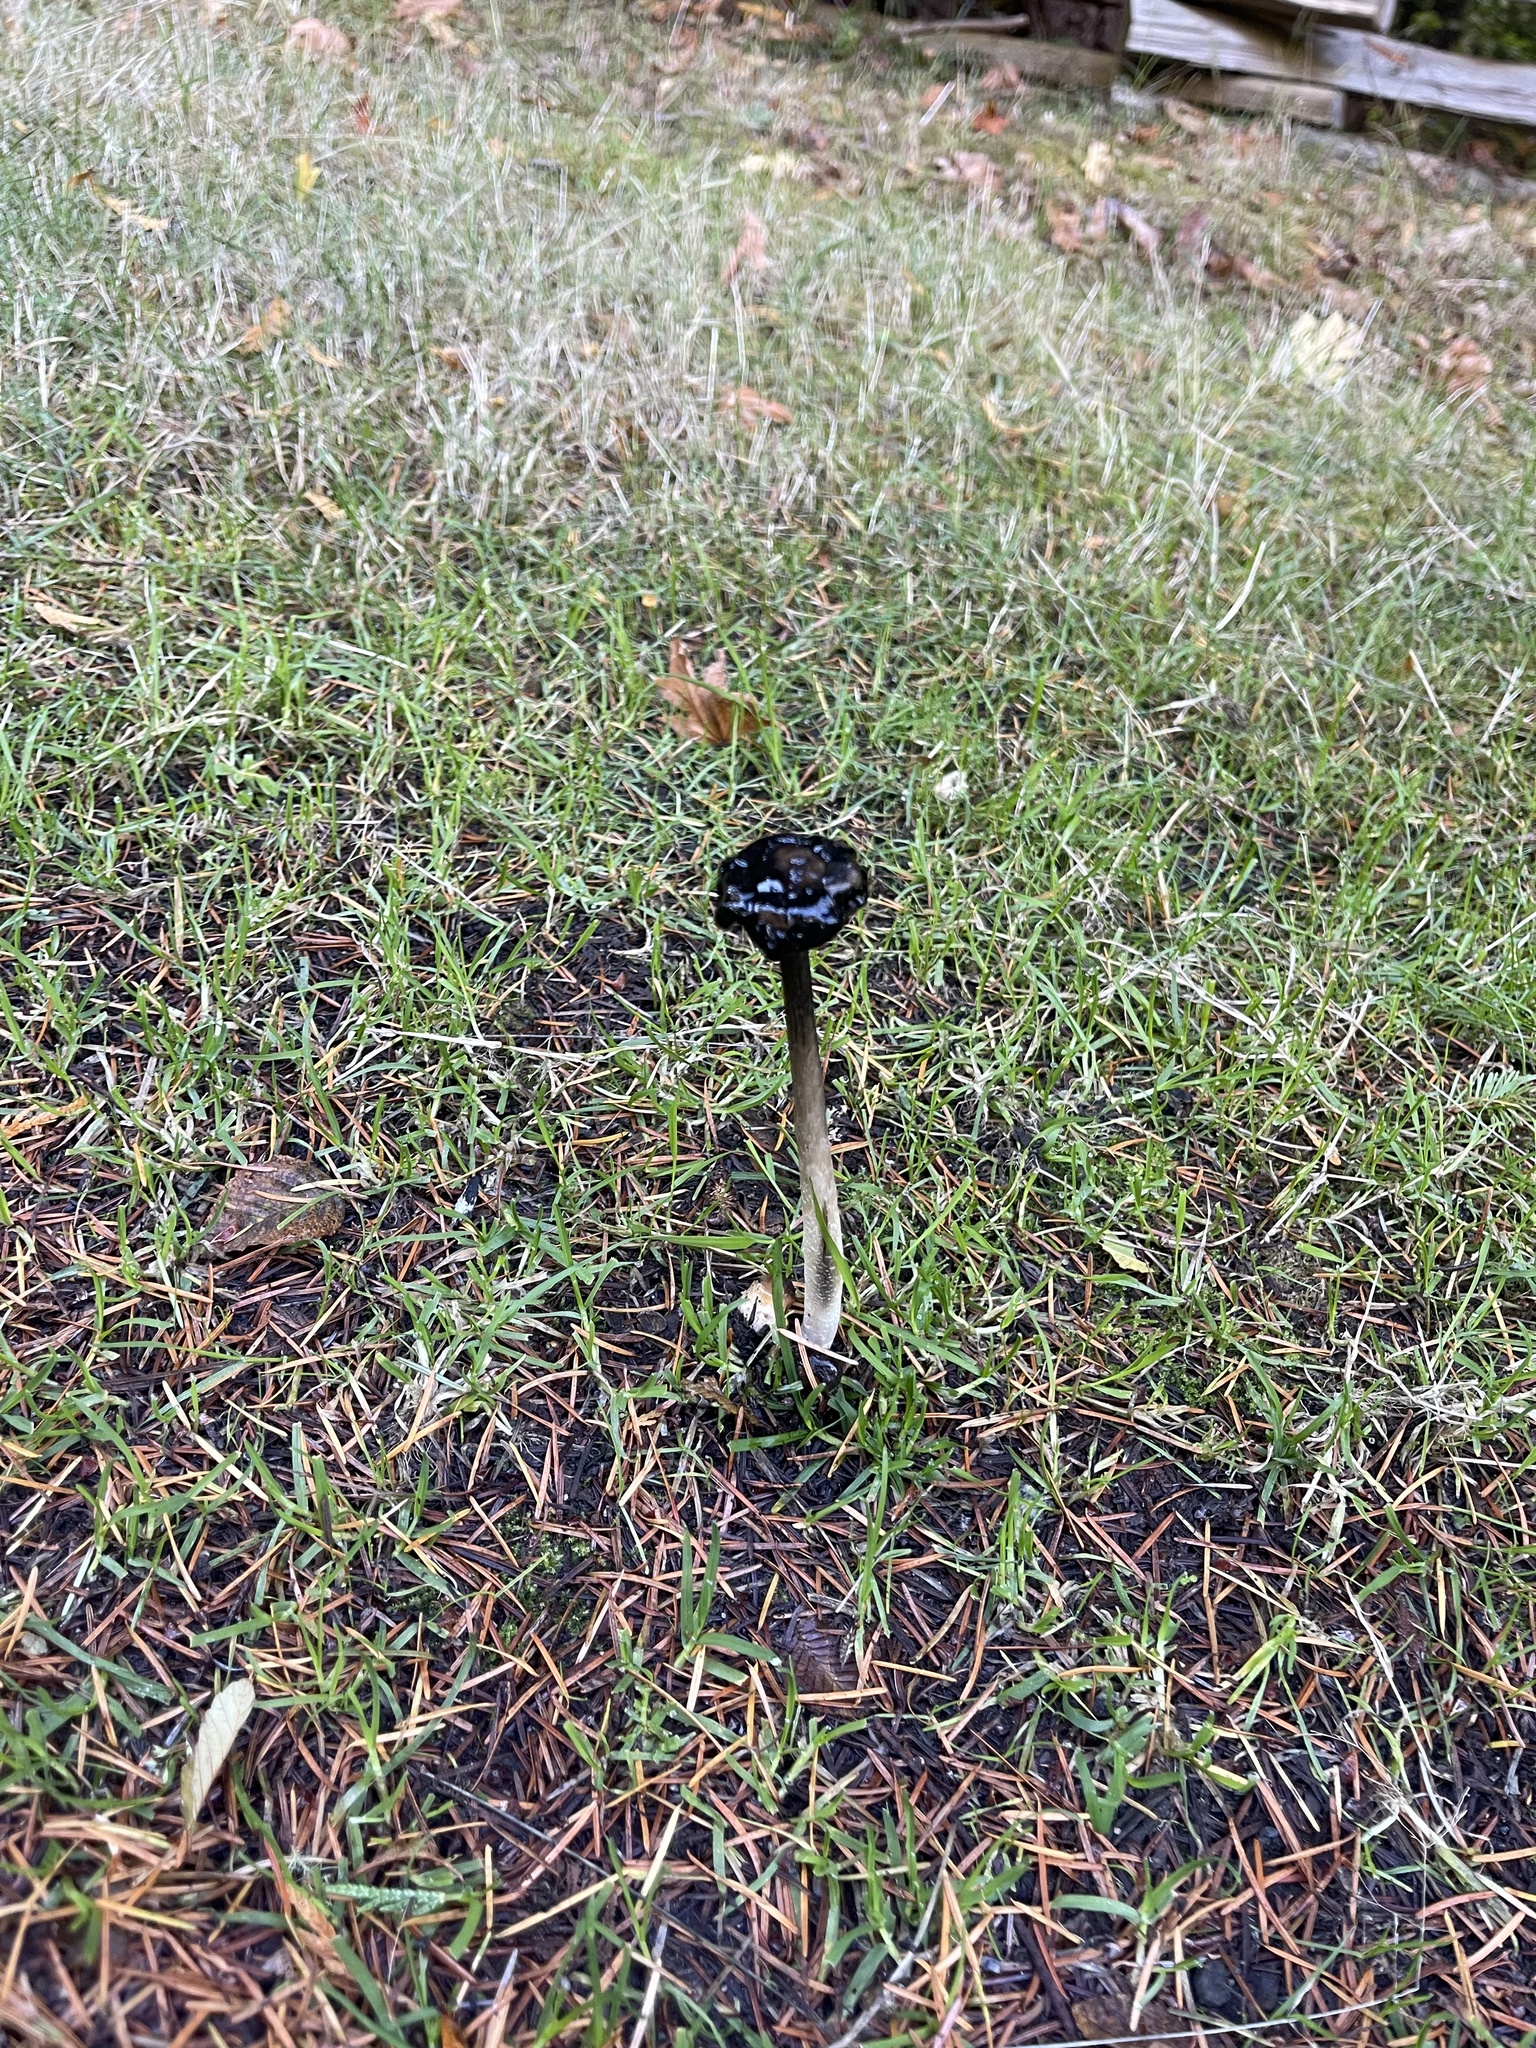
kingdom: Fungi
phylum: Basidiomycota
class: Agaricomycetes
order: Agaricales
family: Agaricaceae
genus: Coprinus
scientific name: Coprinus comatus
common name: Lawyer's wig
